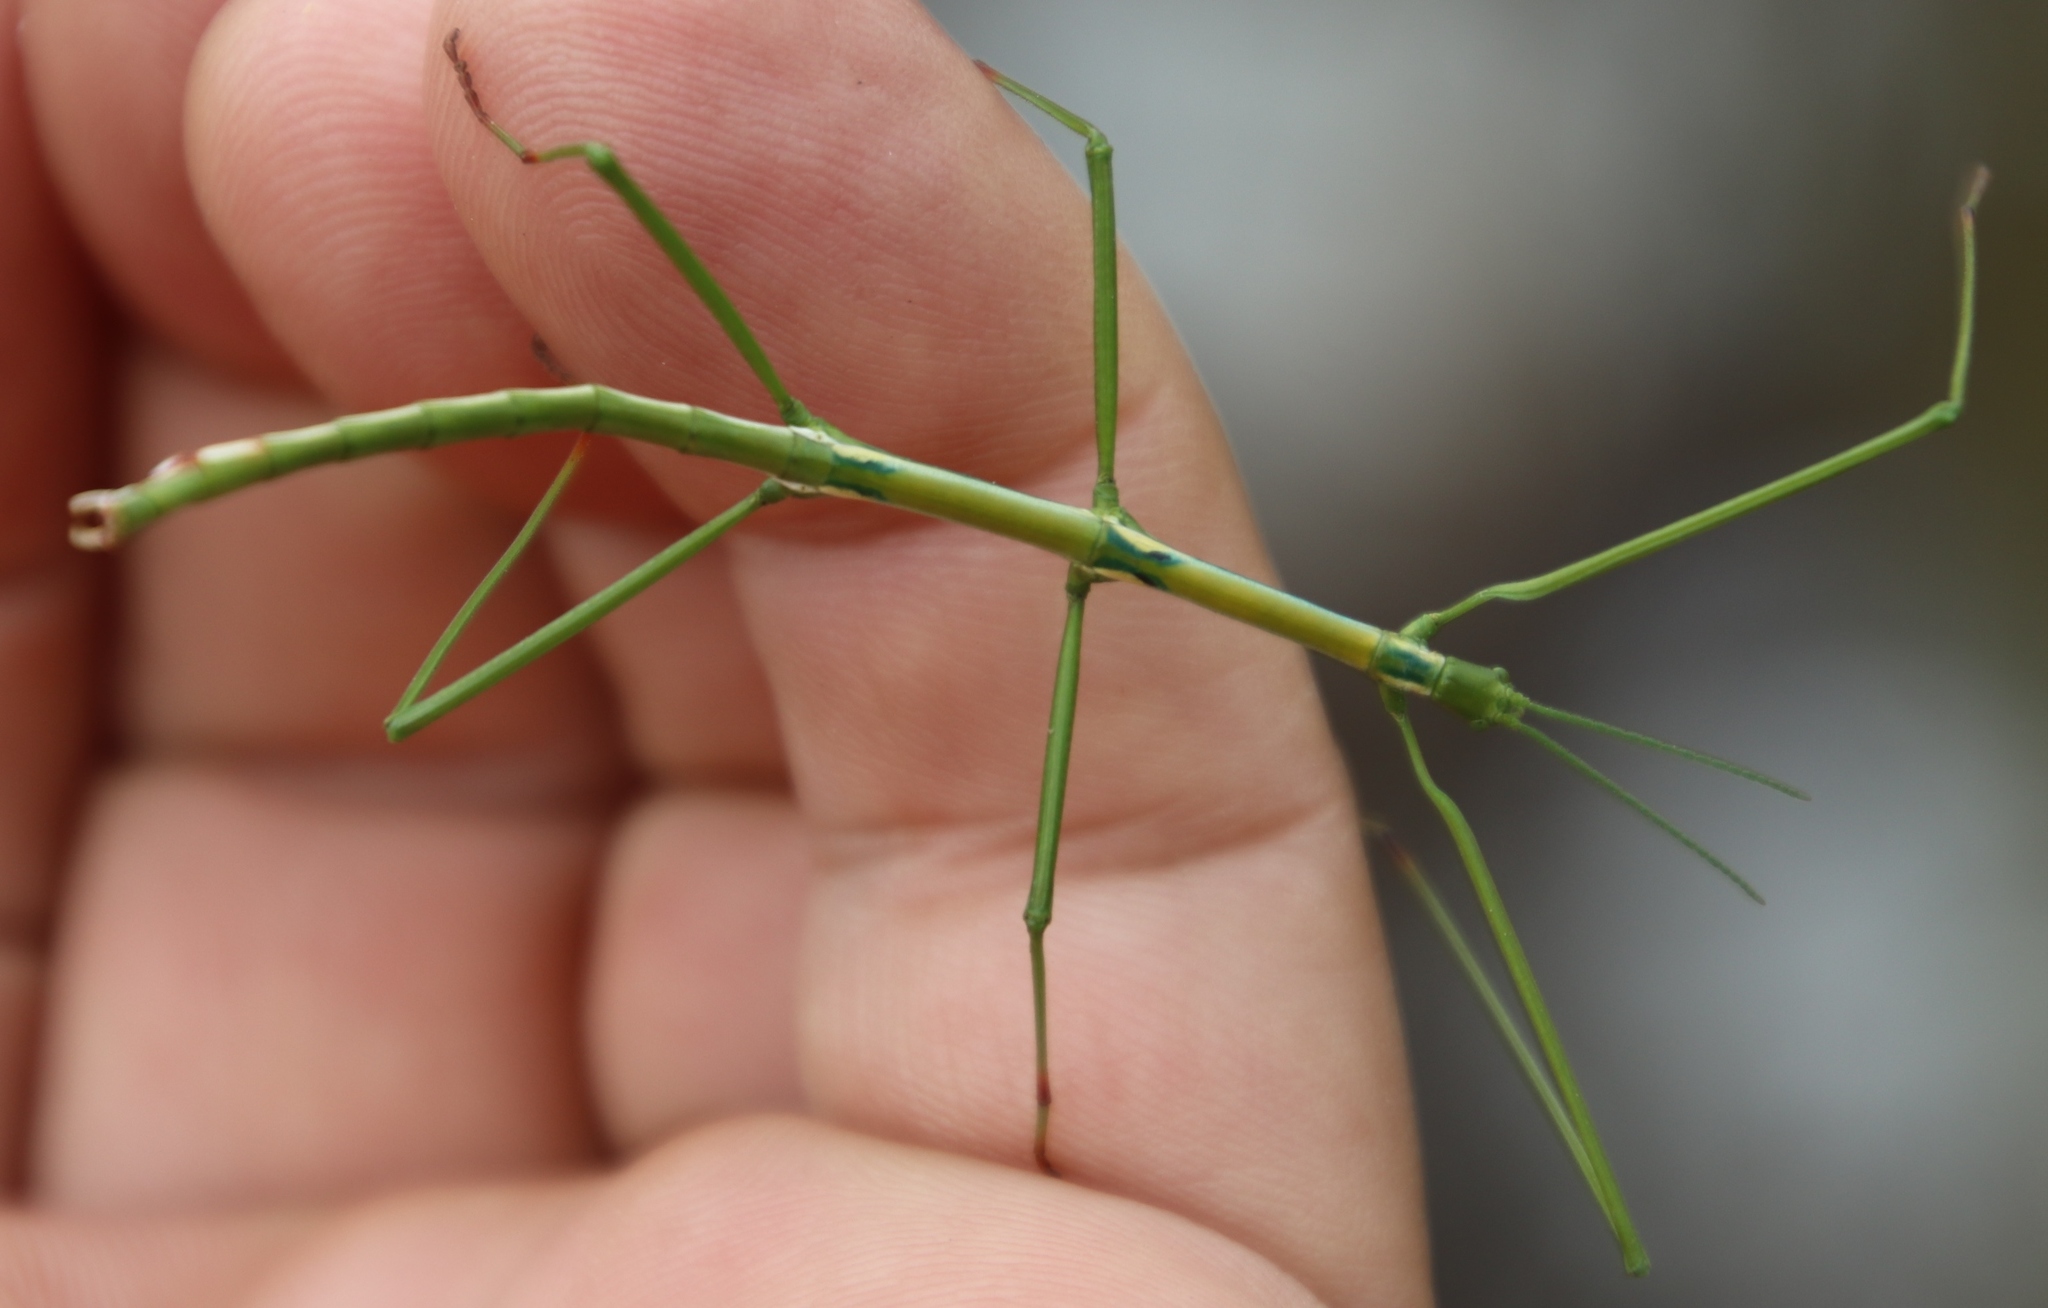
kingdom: Animalia
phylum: Arthropoda
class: Insecta
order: Phasmida
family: Bacillidae
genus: Phalces
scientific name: Phalces brevis
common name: Cape stick insect
